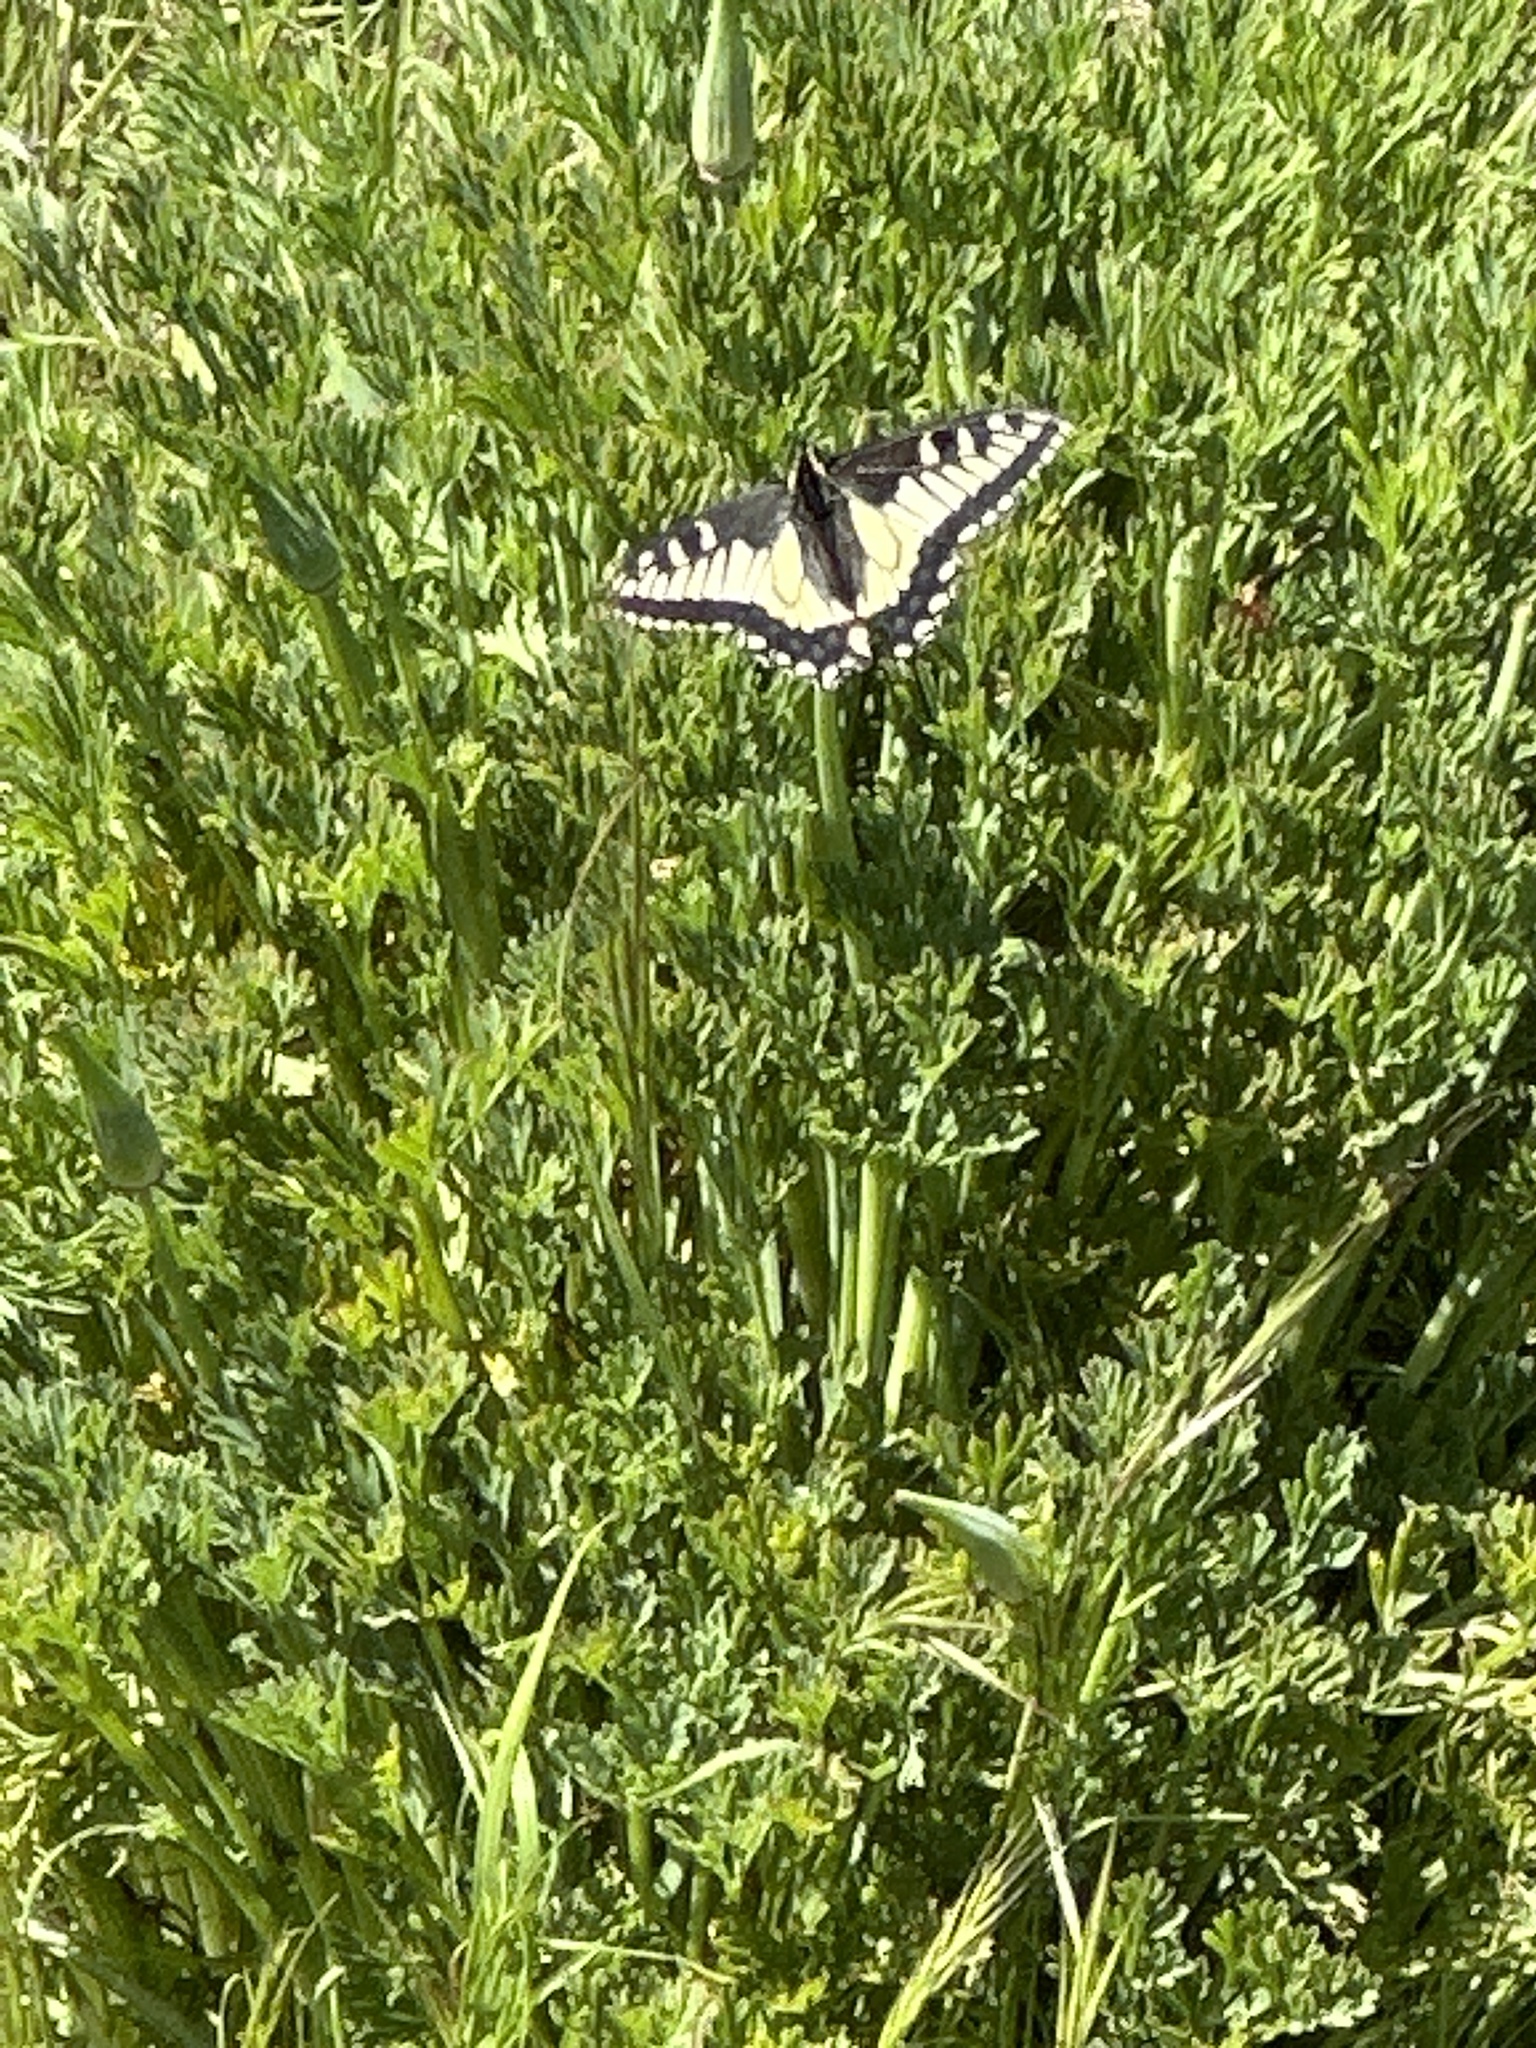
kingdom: Animalia
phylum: Arthropoda
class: Insecta
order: Lepidoptera
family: Papilionidae
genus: Papilio
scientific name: Papilio zelicaon
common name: Anise swallowtail
